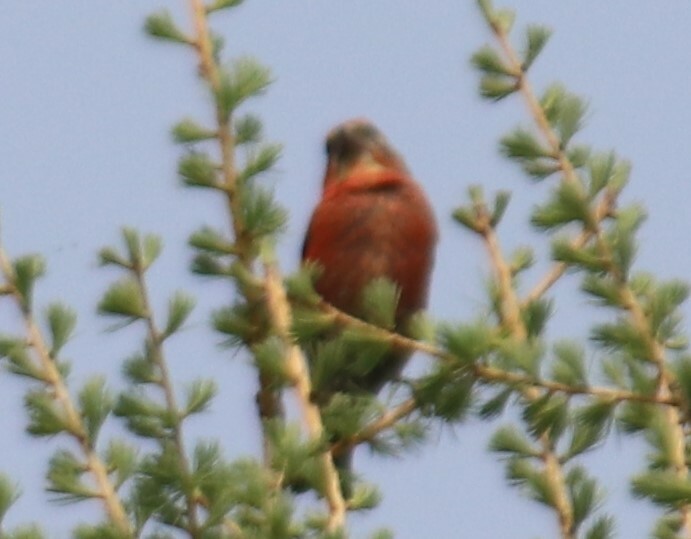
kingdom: Animalia
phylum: Chordata
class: Aves
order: Passeriformes
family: Fringillidae
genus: Loxia
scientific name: Loxia curvirostra
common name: Red crossbill
